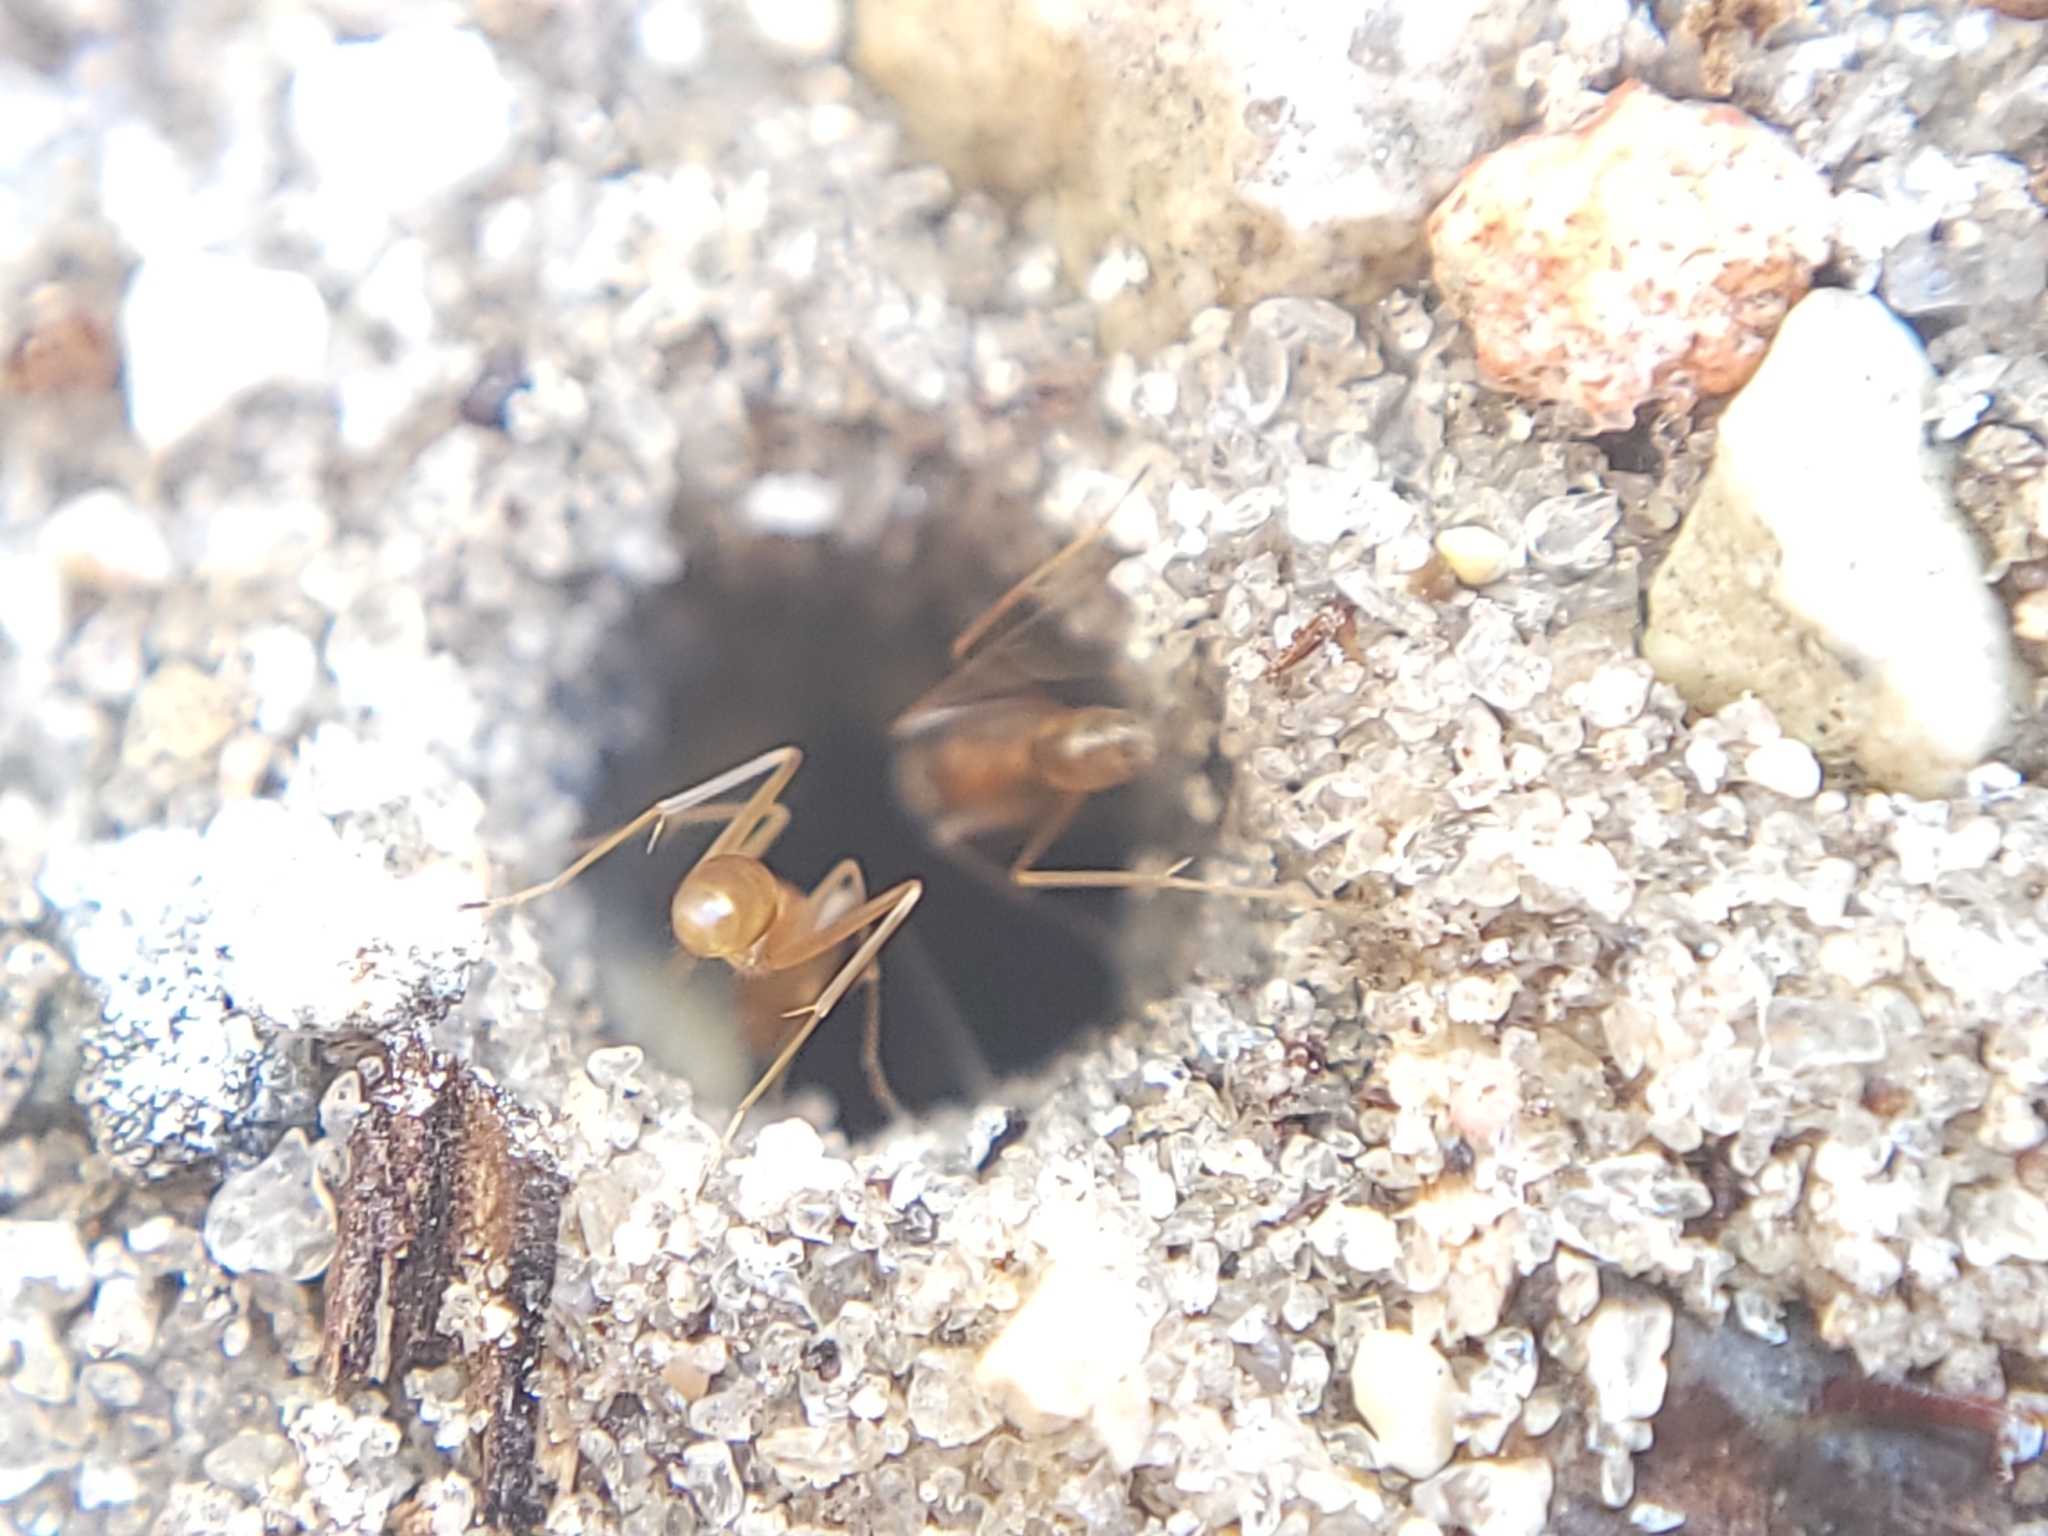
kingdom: Animalia
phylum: Arthropoda
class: Insecta
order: Hymenoptera
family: Formicidae
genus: Dorymyrmex
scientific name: Dorymyrmex bureni
